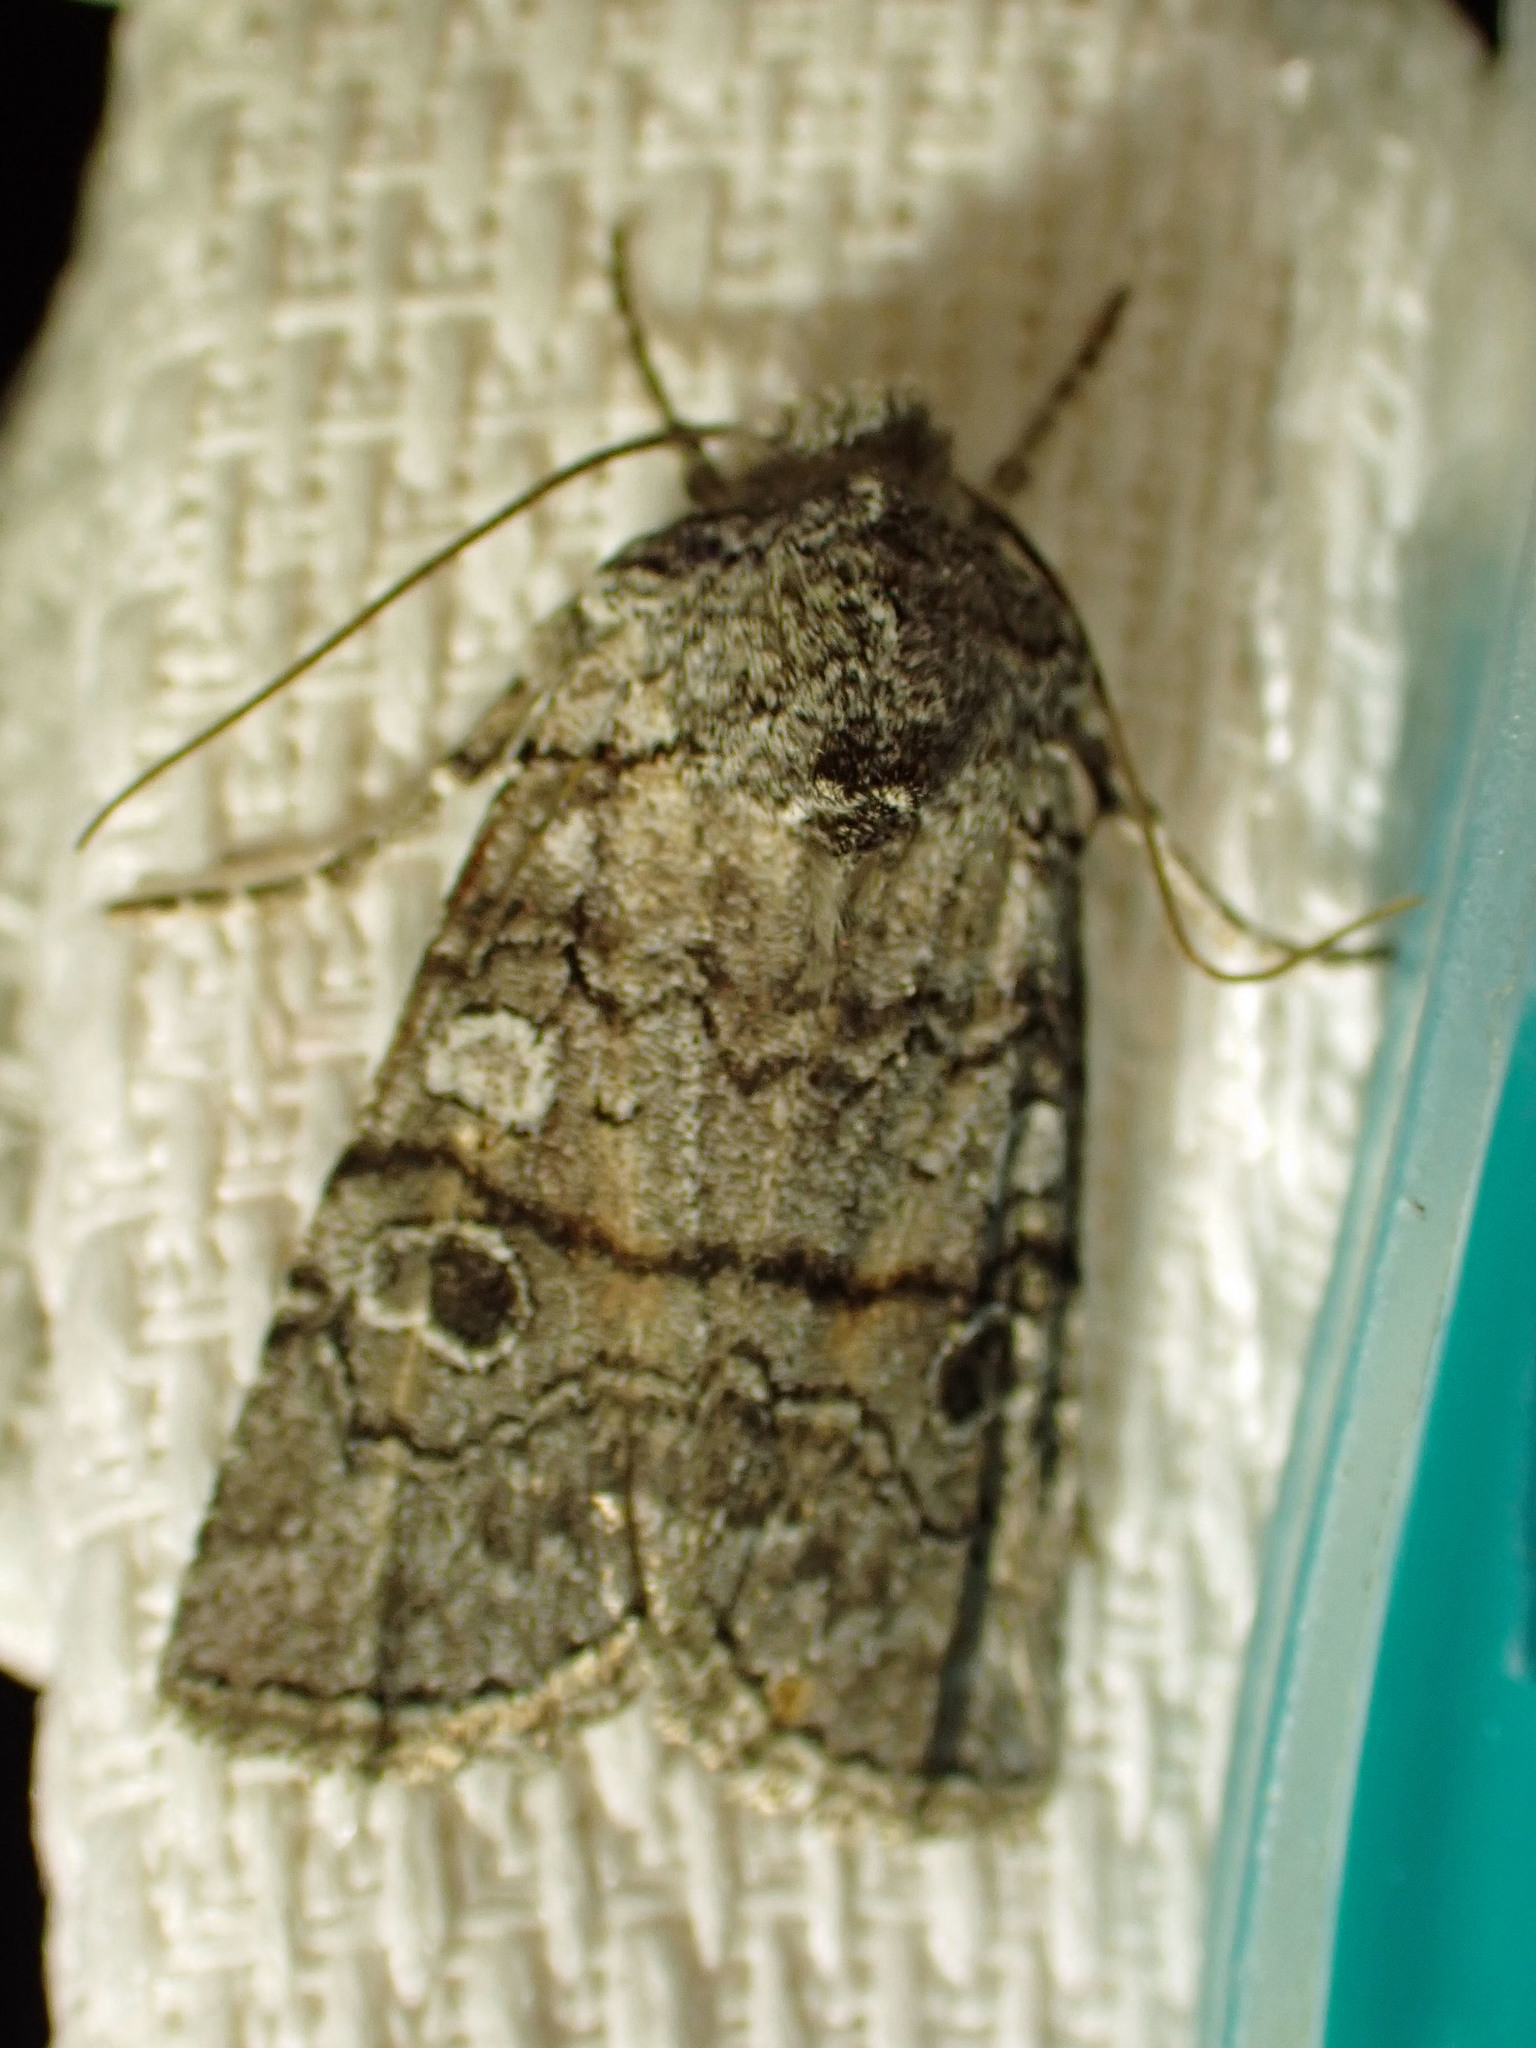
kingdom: Animalia
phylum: Arthropoda
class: Insecta
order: Lepidoptera
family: Noctuidae
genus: Litholomia
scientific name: Litholomia napaea
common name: False pinion moth
